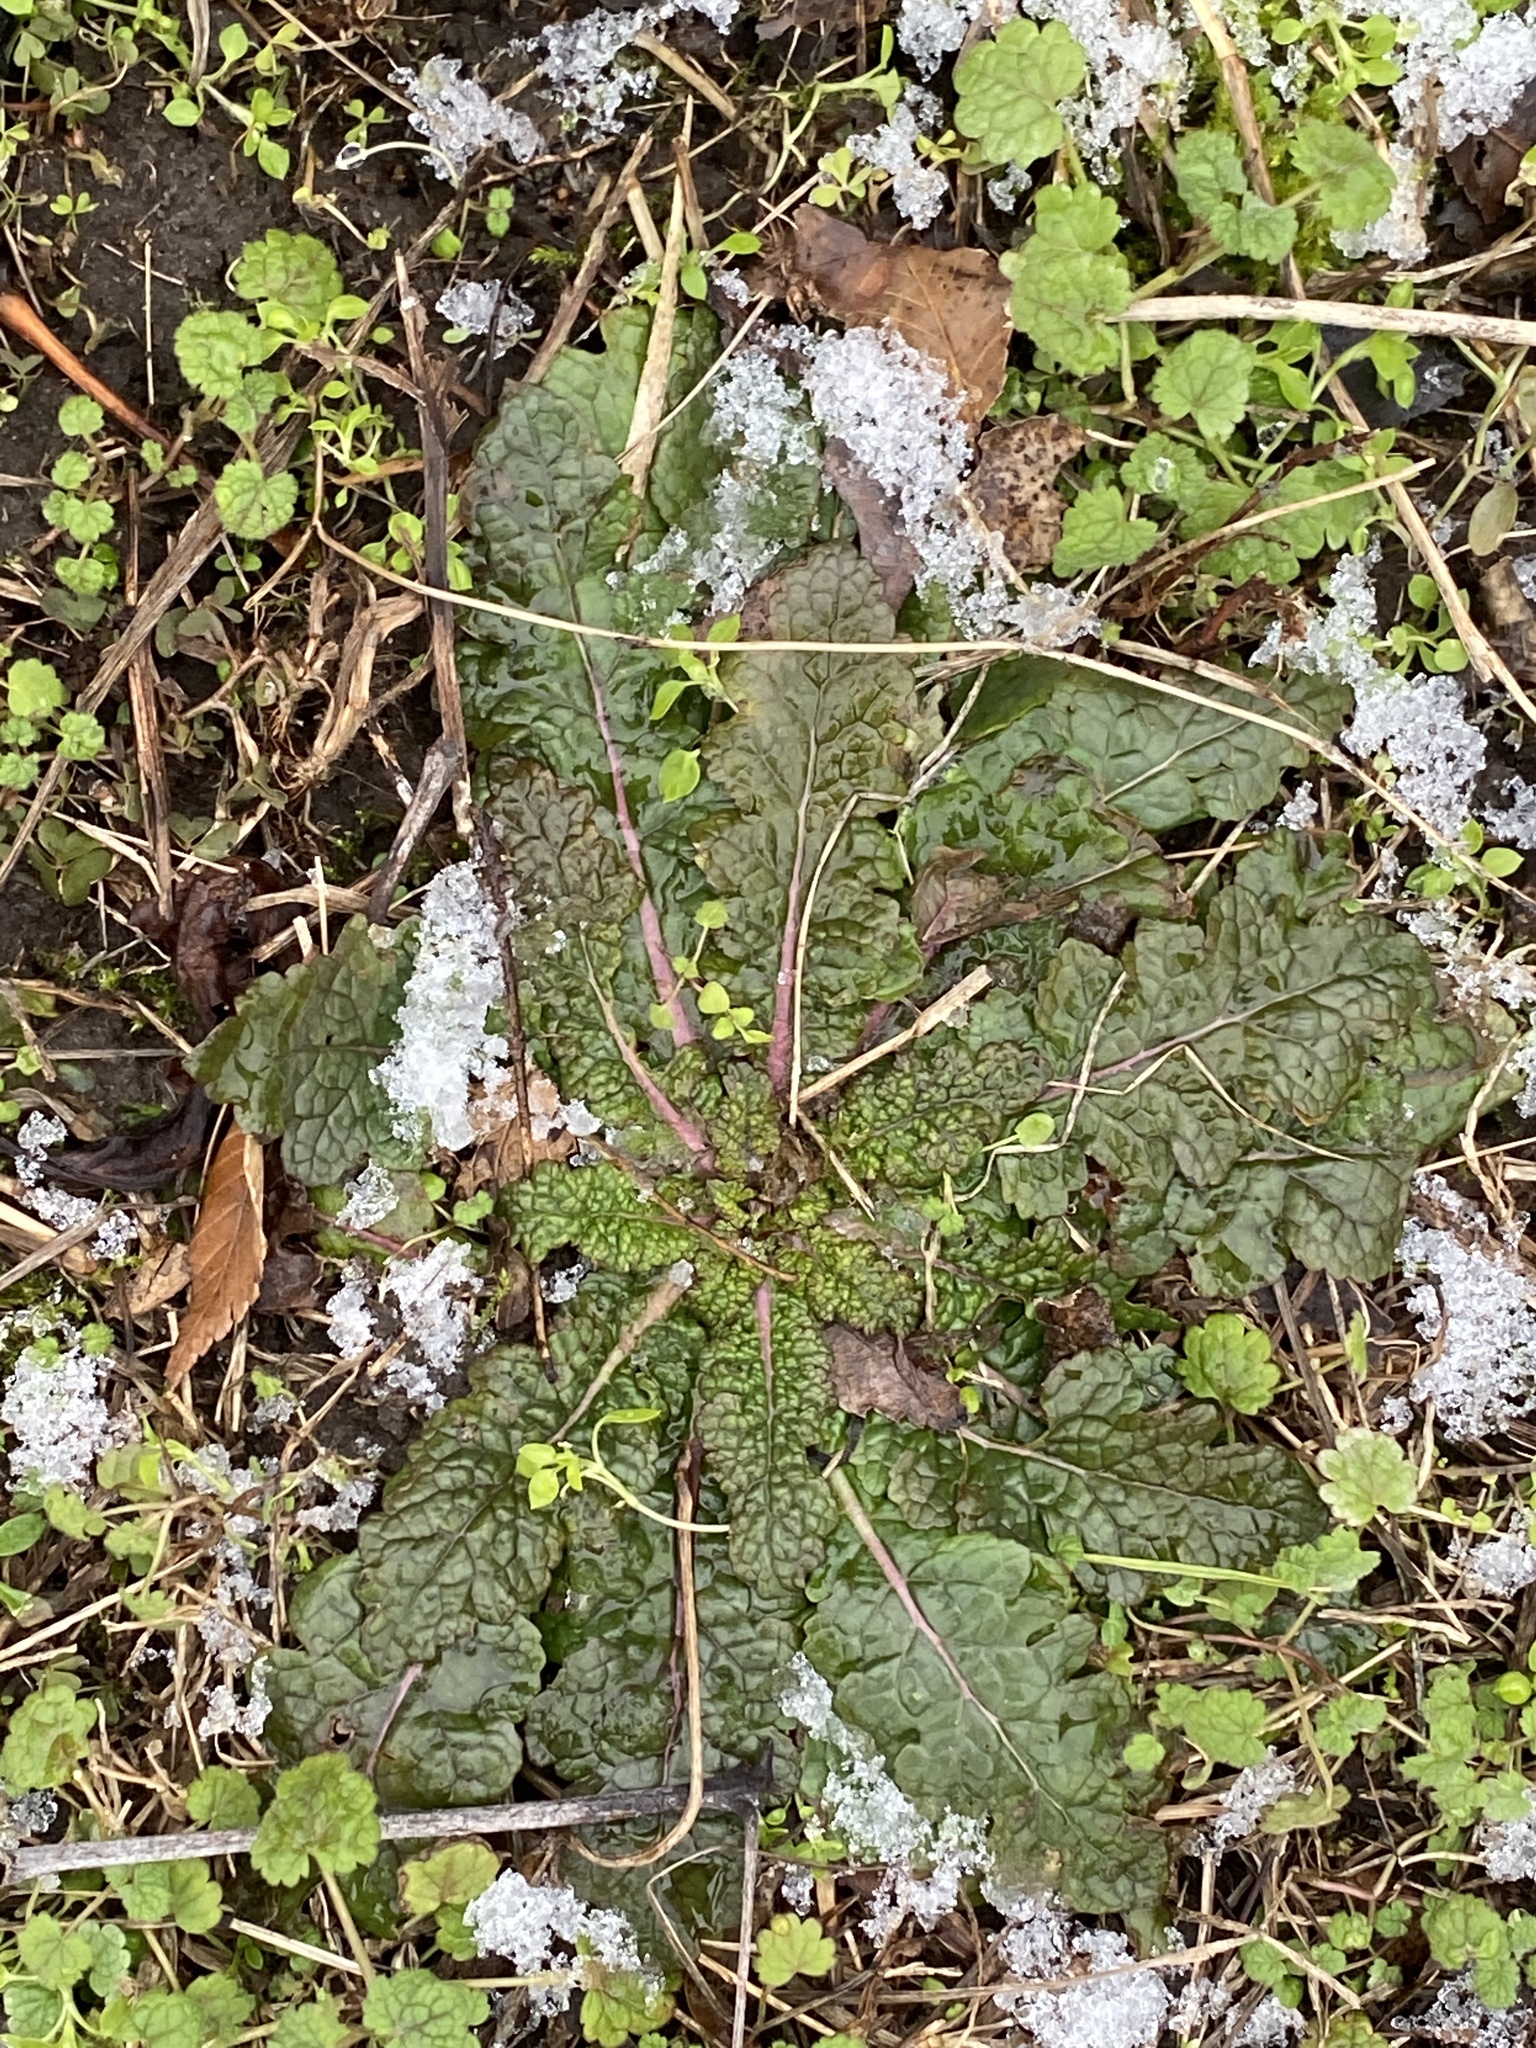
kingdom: Plantae
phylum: Tracheophyta
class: Magnoliopsida
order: Lamiales
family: Scrophulariaceae
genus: Verbascum
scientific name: Verbascum blattaria
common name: Moth mullein
